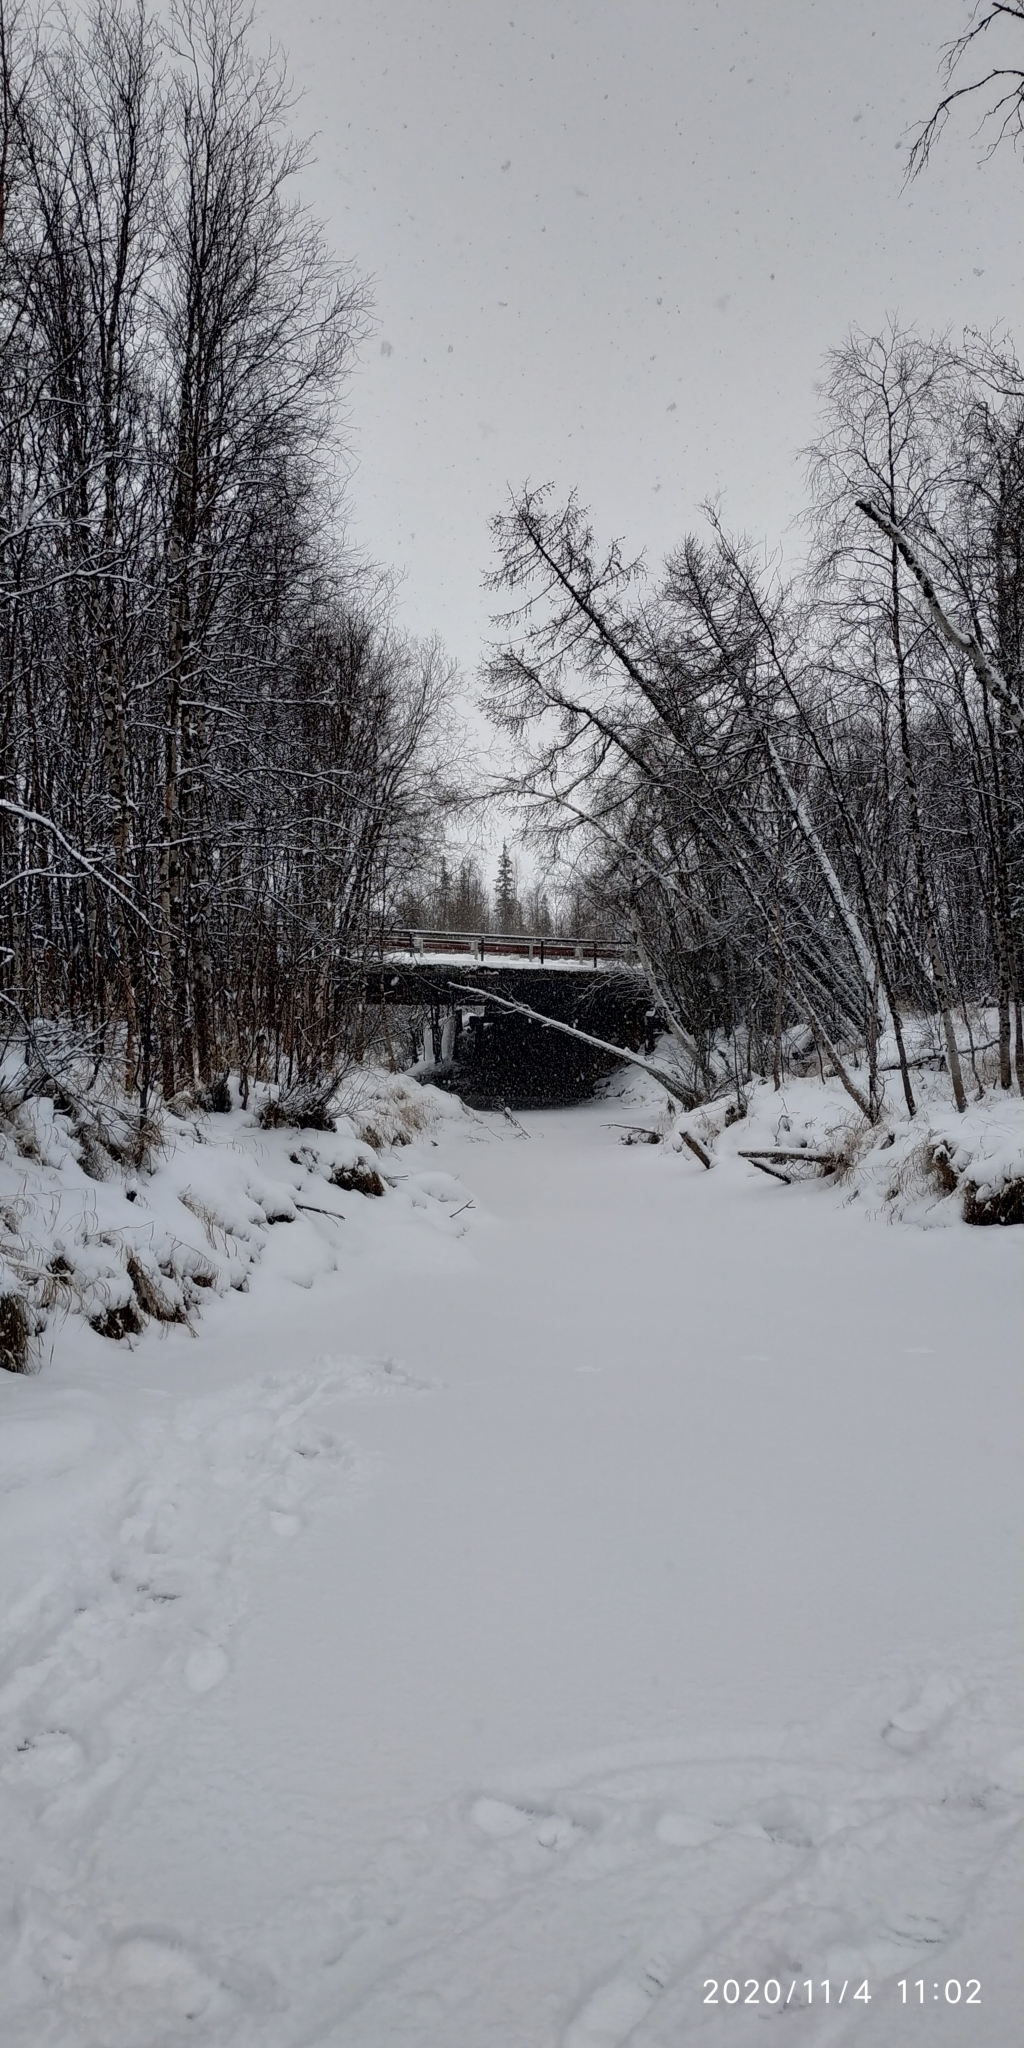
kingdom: Plantae
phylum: Tracheophyta
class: Pinopsida
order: Pinales
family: Pinaceae
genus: Larix
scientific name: Larix sibirica
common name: Siberian larch
